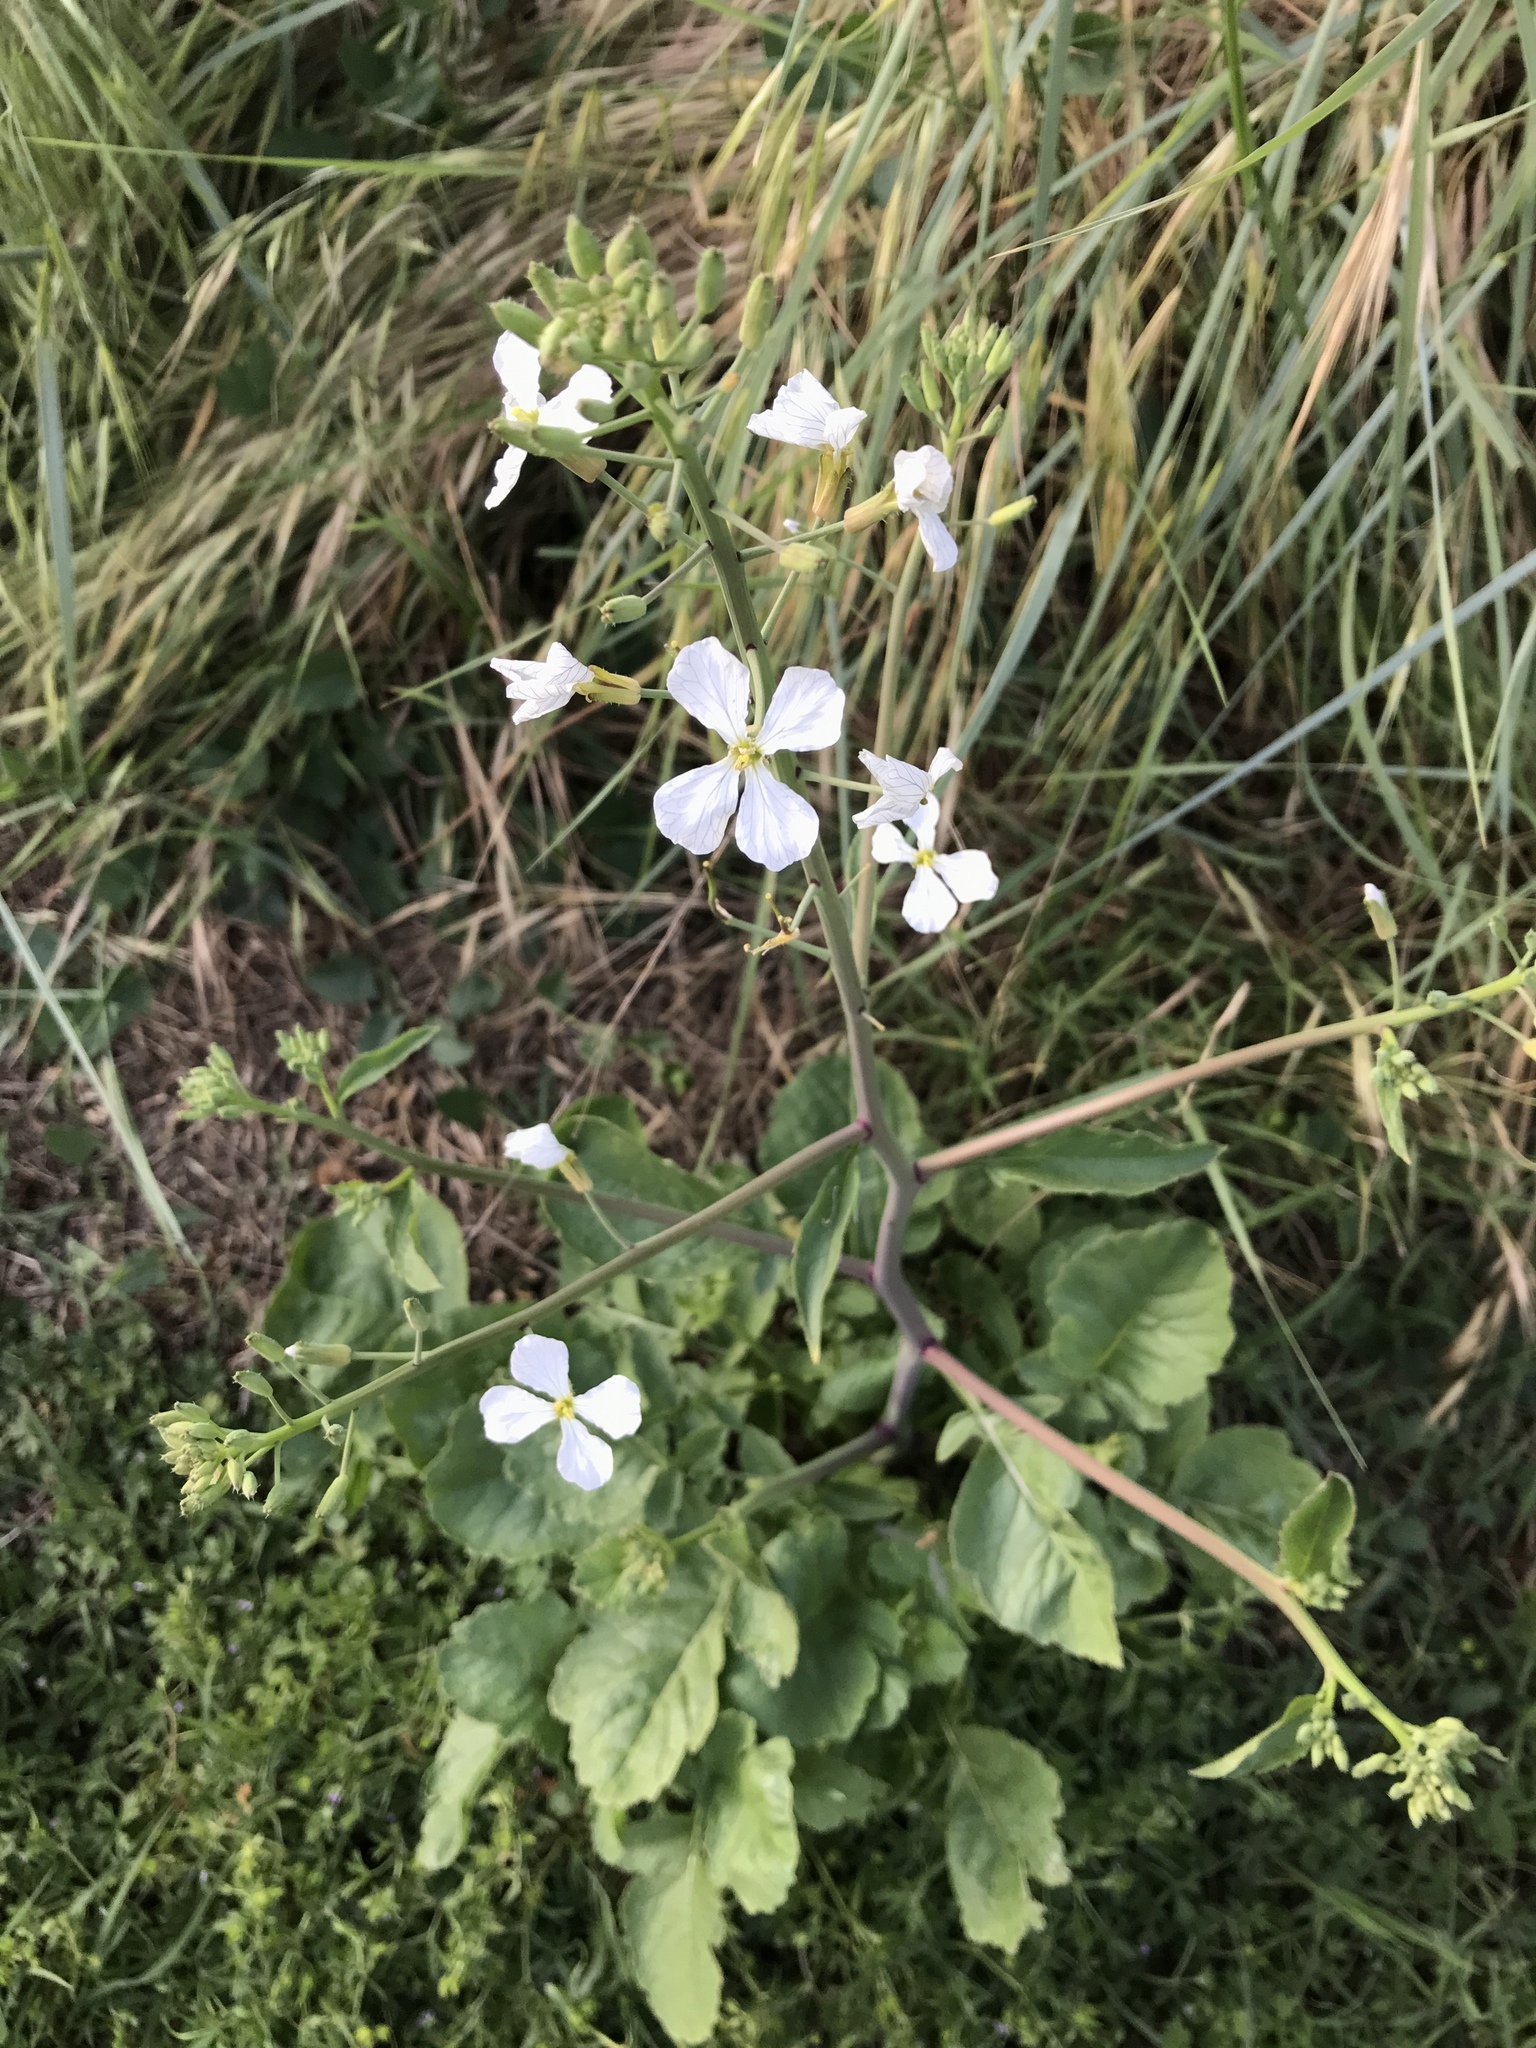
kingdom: Plantae
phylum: Tracheophyta
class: Magnoliopsida
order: Brassicales
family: Brassicaceae
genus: Raphanus
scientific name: Raphanus sativus
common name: Cultivated radish
